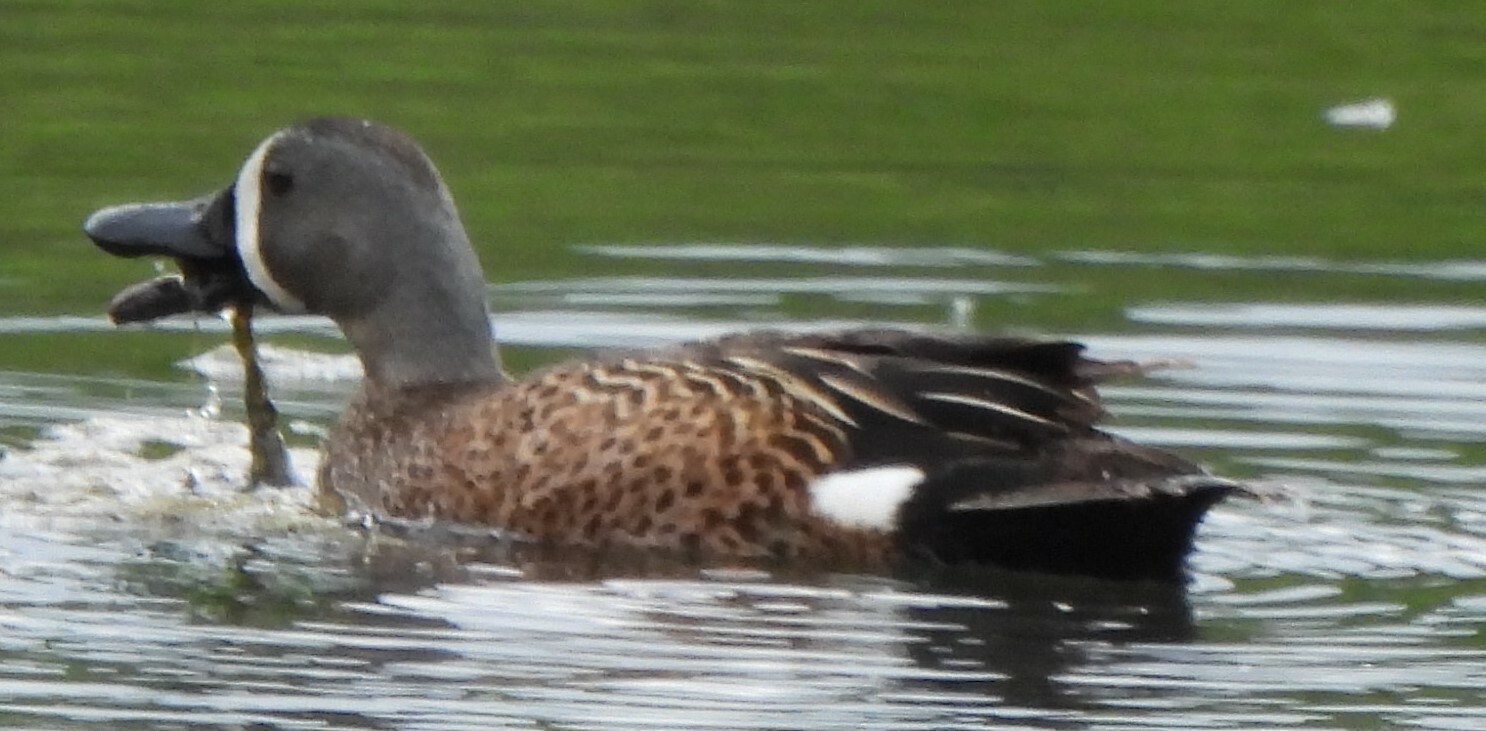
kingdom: Animalia
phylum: Chordata
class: Aves
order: Anseriformes
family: Anatidae
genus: Spatula
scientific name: Spatula discors
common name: Blue-winged teal
